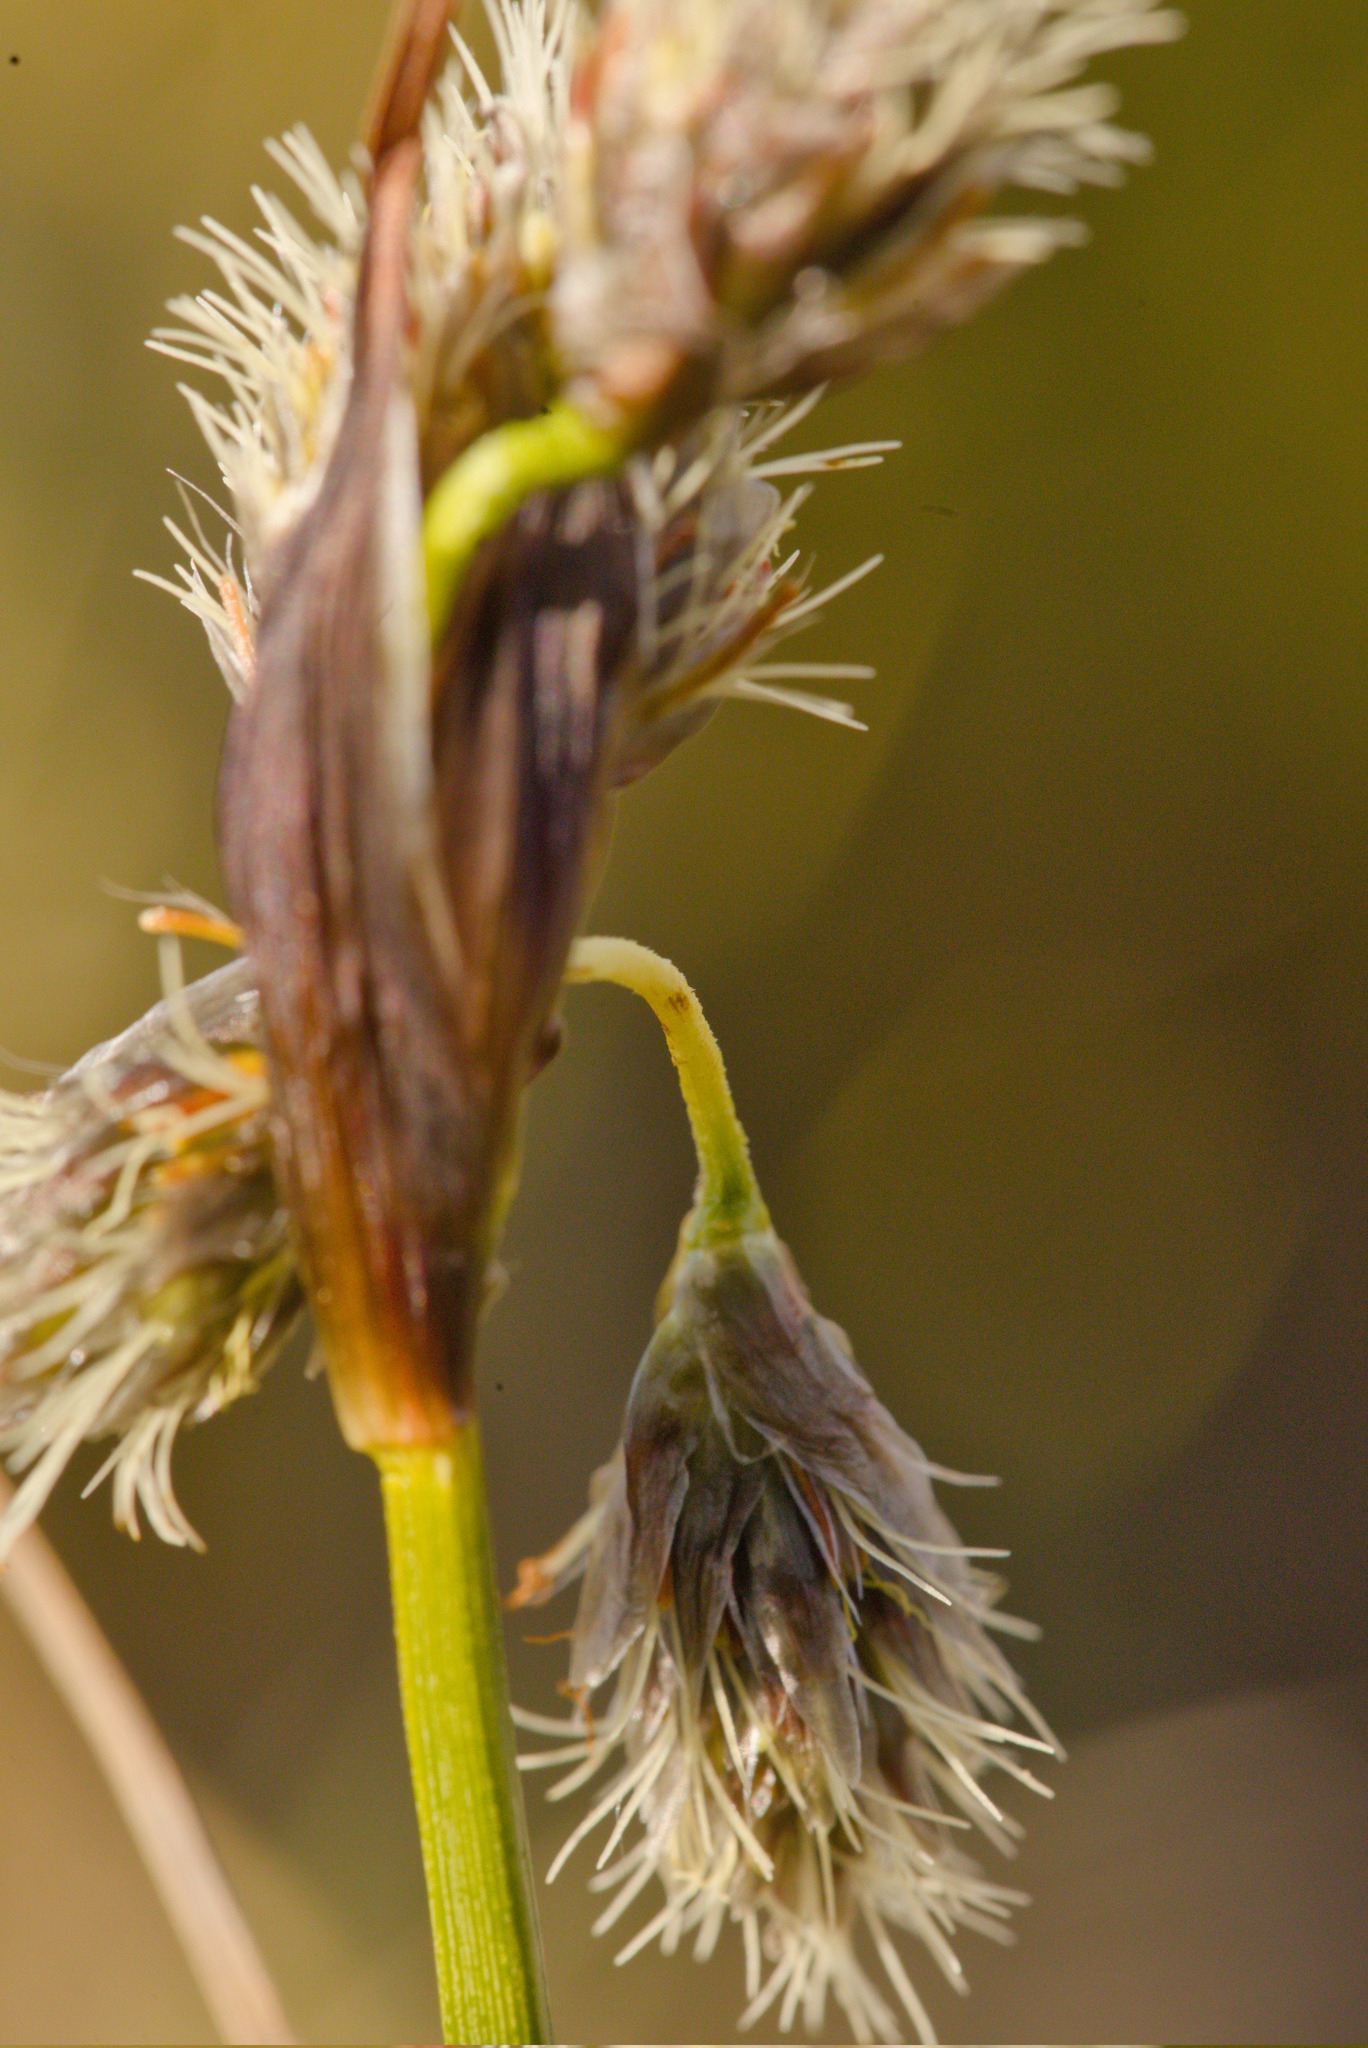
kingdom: Plantae
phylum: Tracheophyta
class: Liliopsida
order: Poales
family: Cyperaceae
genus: Eriophorum
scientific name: Eriophorum angustifolium
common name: Common cottongrass
